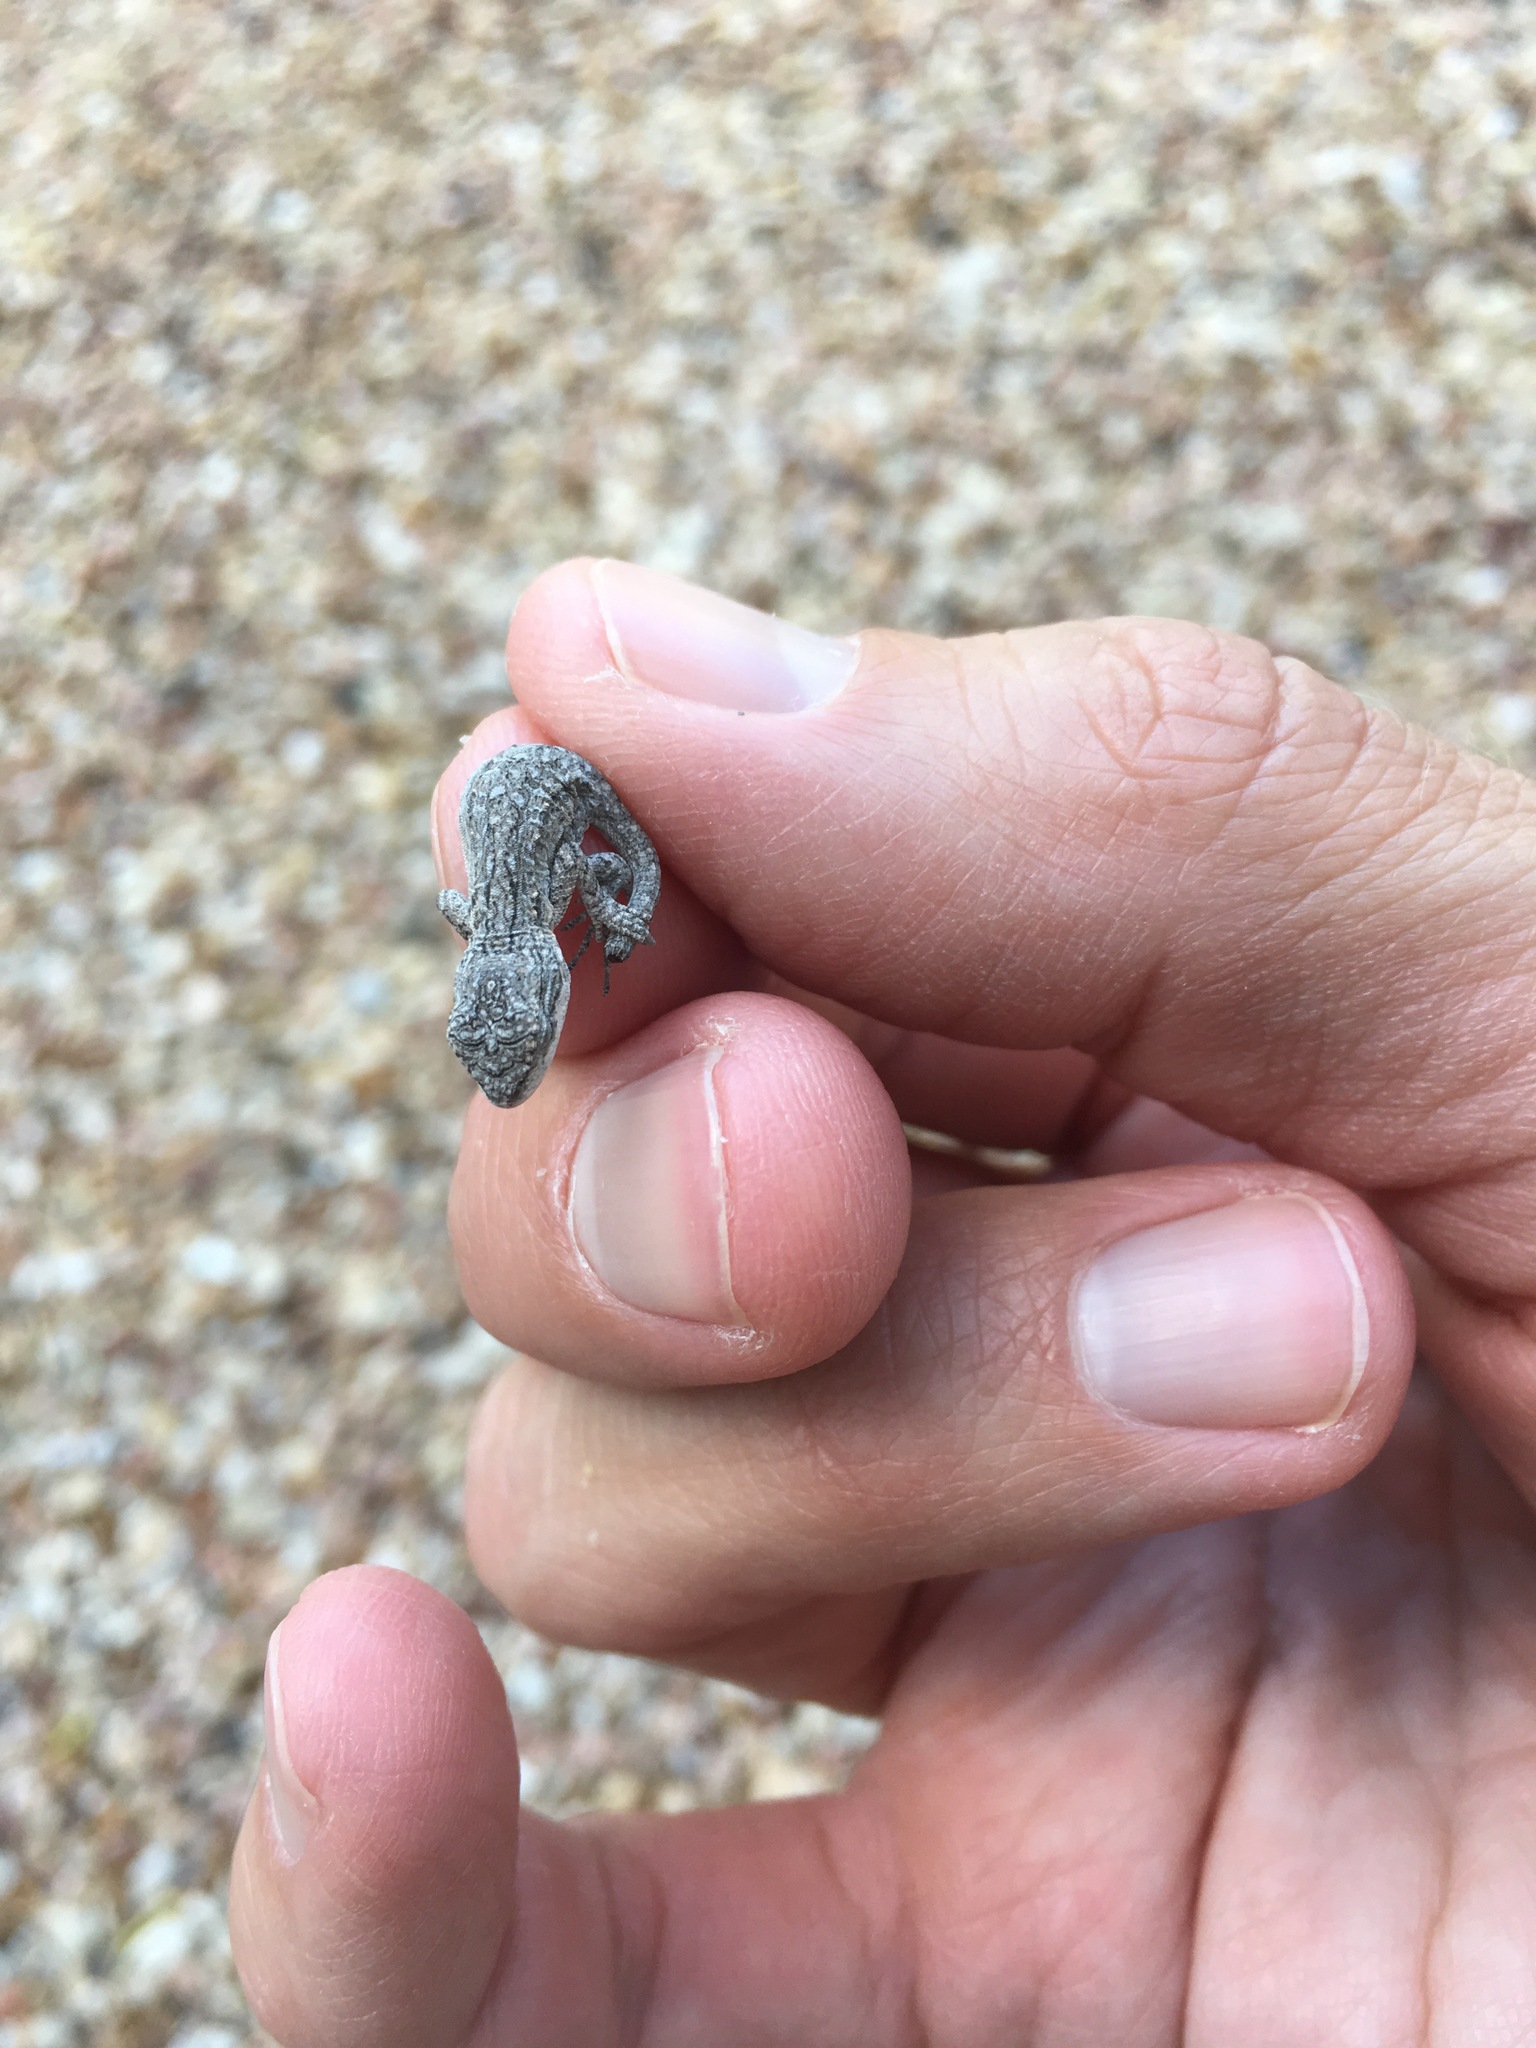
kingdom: Animalia
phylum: Chordata
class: Squamata
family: Phrynosomatidae
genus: Urosaurus
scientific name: Urosaurus ornatus
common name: Ornate tree lizard
